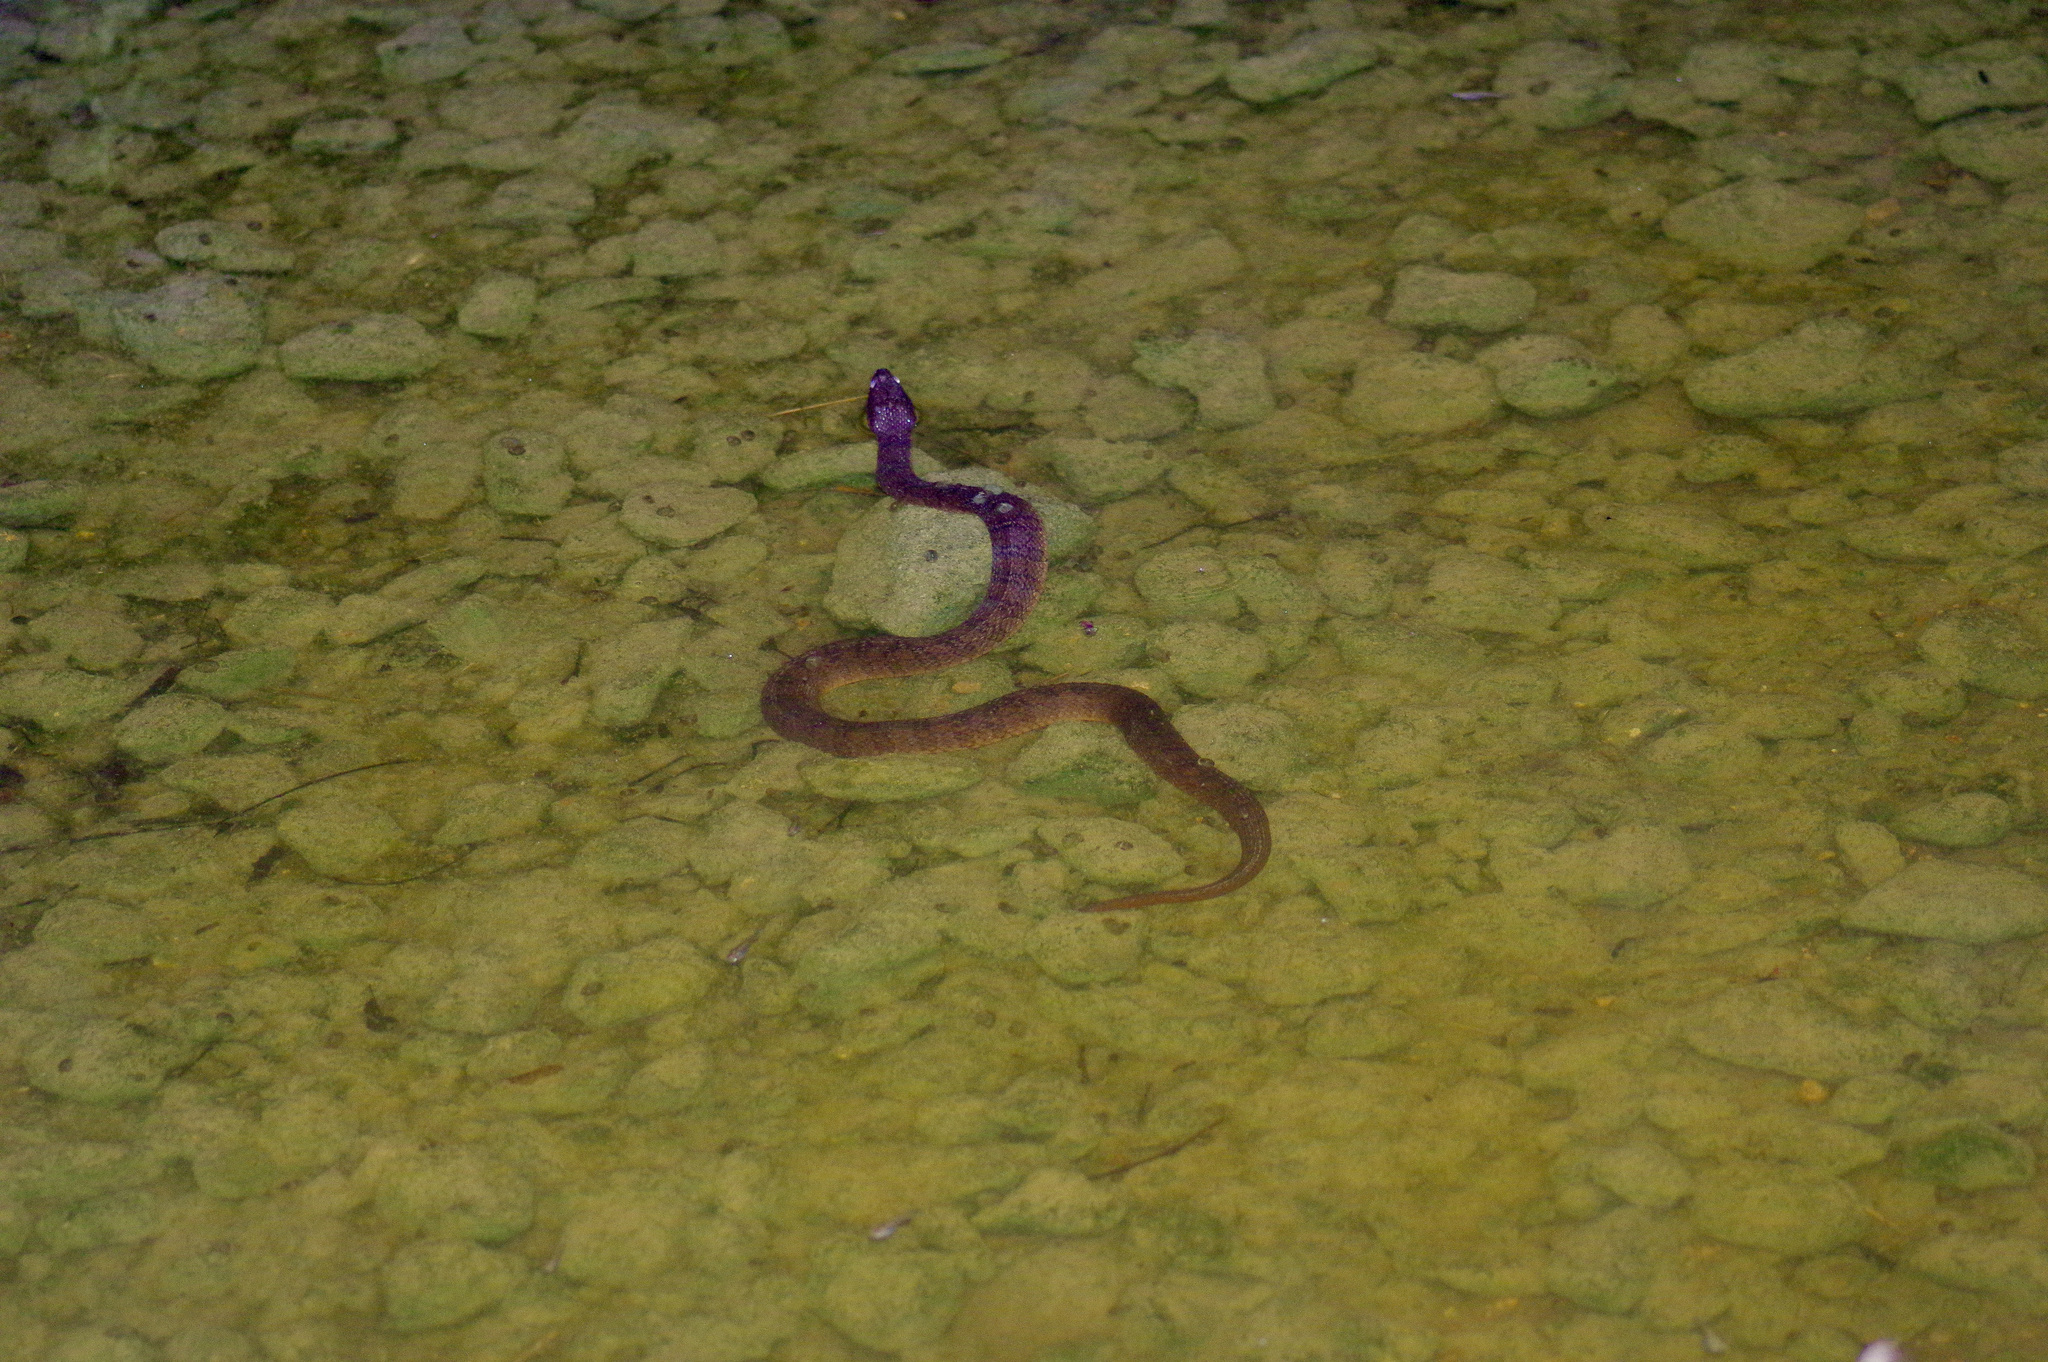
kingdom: Animalia
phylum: Chordata
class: Squamata
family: Colubridae
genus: Nerodia
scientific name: Nerodia erythrogaster
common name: Plainbelly water snake
